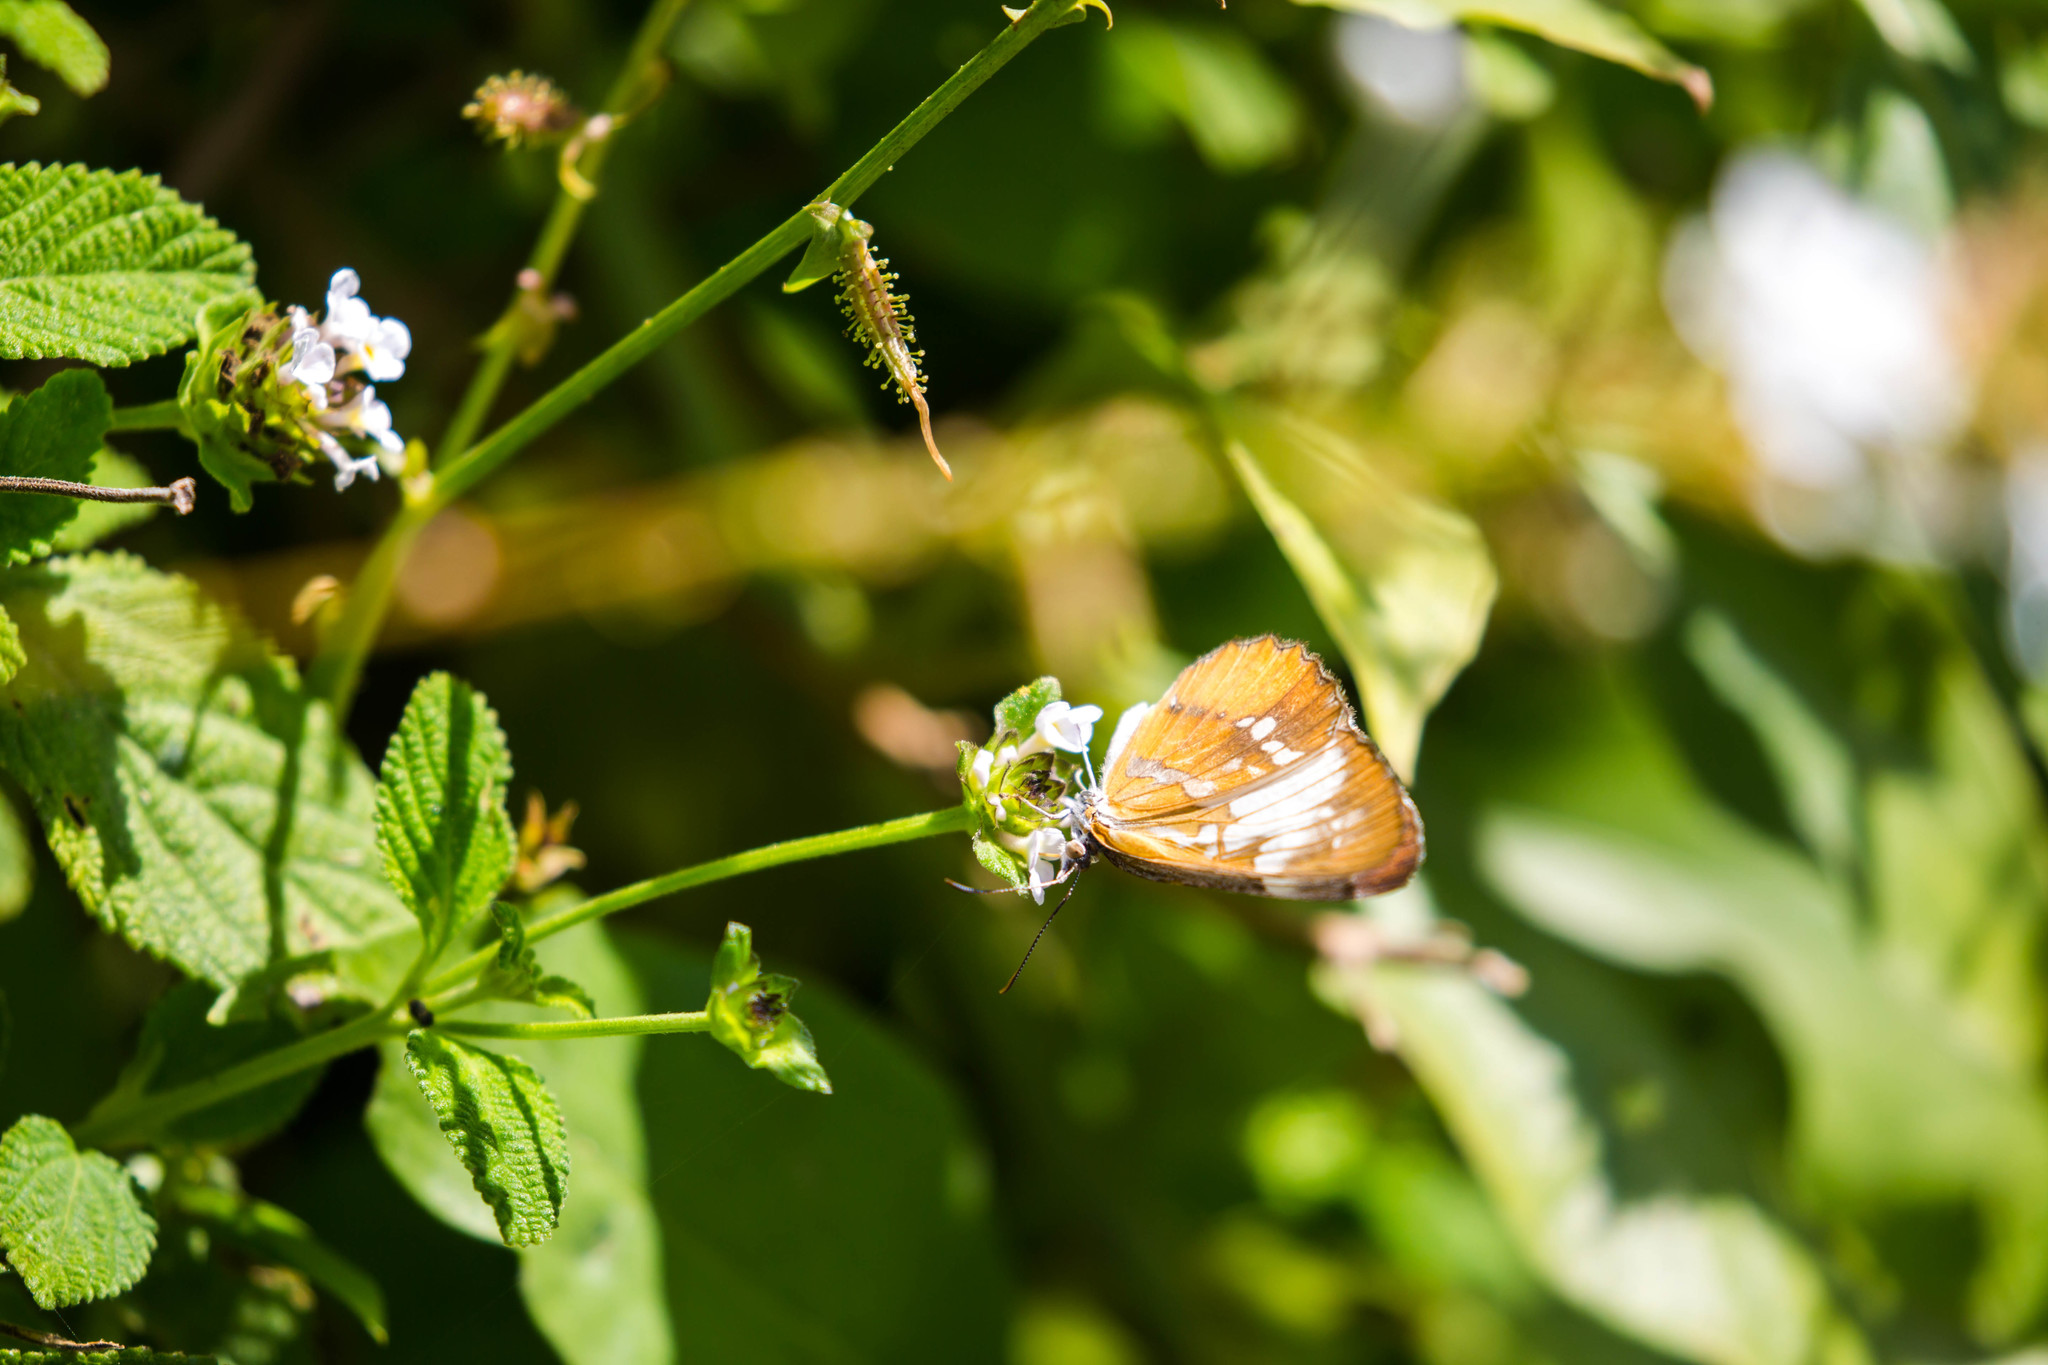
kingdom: Animalia
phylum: Arthropoda
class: Insecta
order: Lepidoptera
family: Nymphalidae
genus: Mestra
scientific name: Mestra amymone
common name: Common mestra
